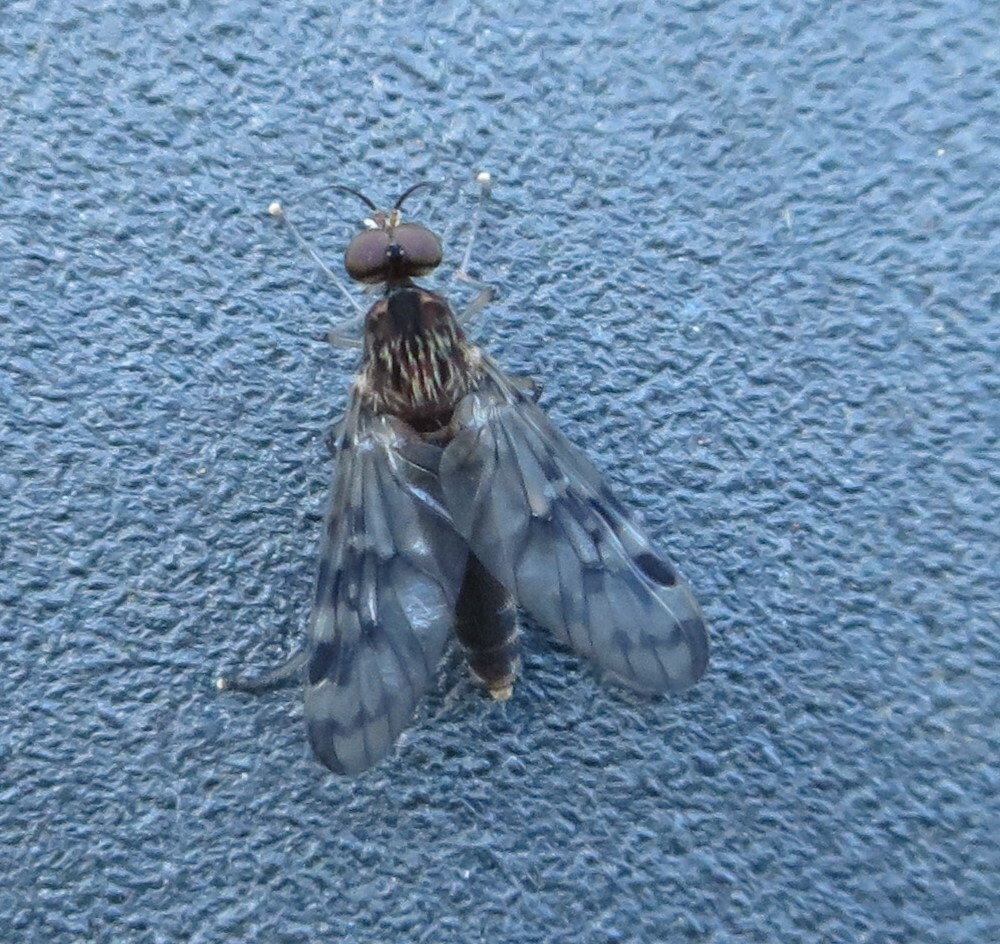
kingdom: Animalia
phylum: Arthropoda
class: Insecta
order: Diptera
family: Anisopodidae
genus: Sylvicola
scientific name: Sylvicola dubius
